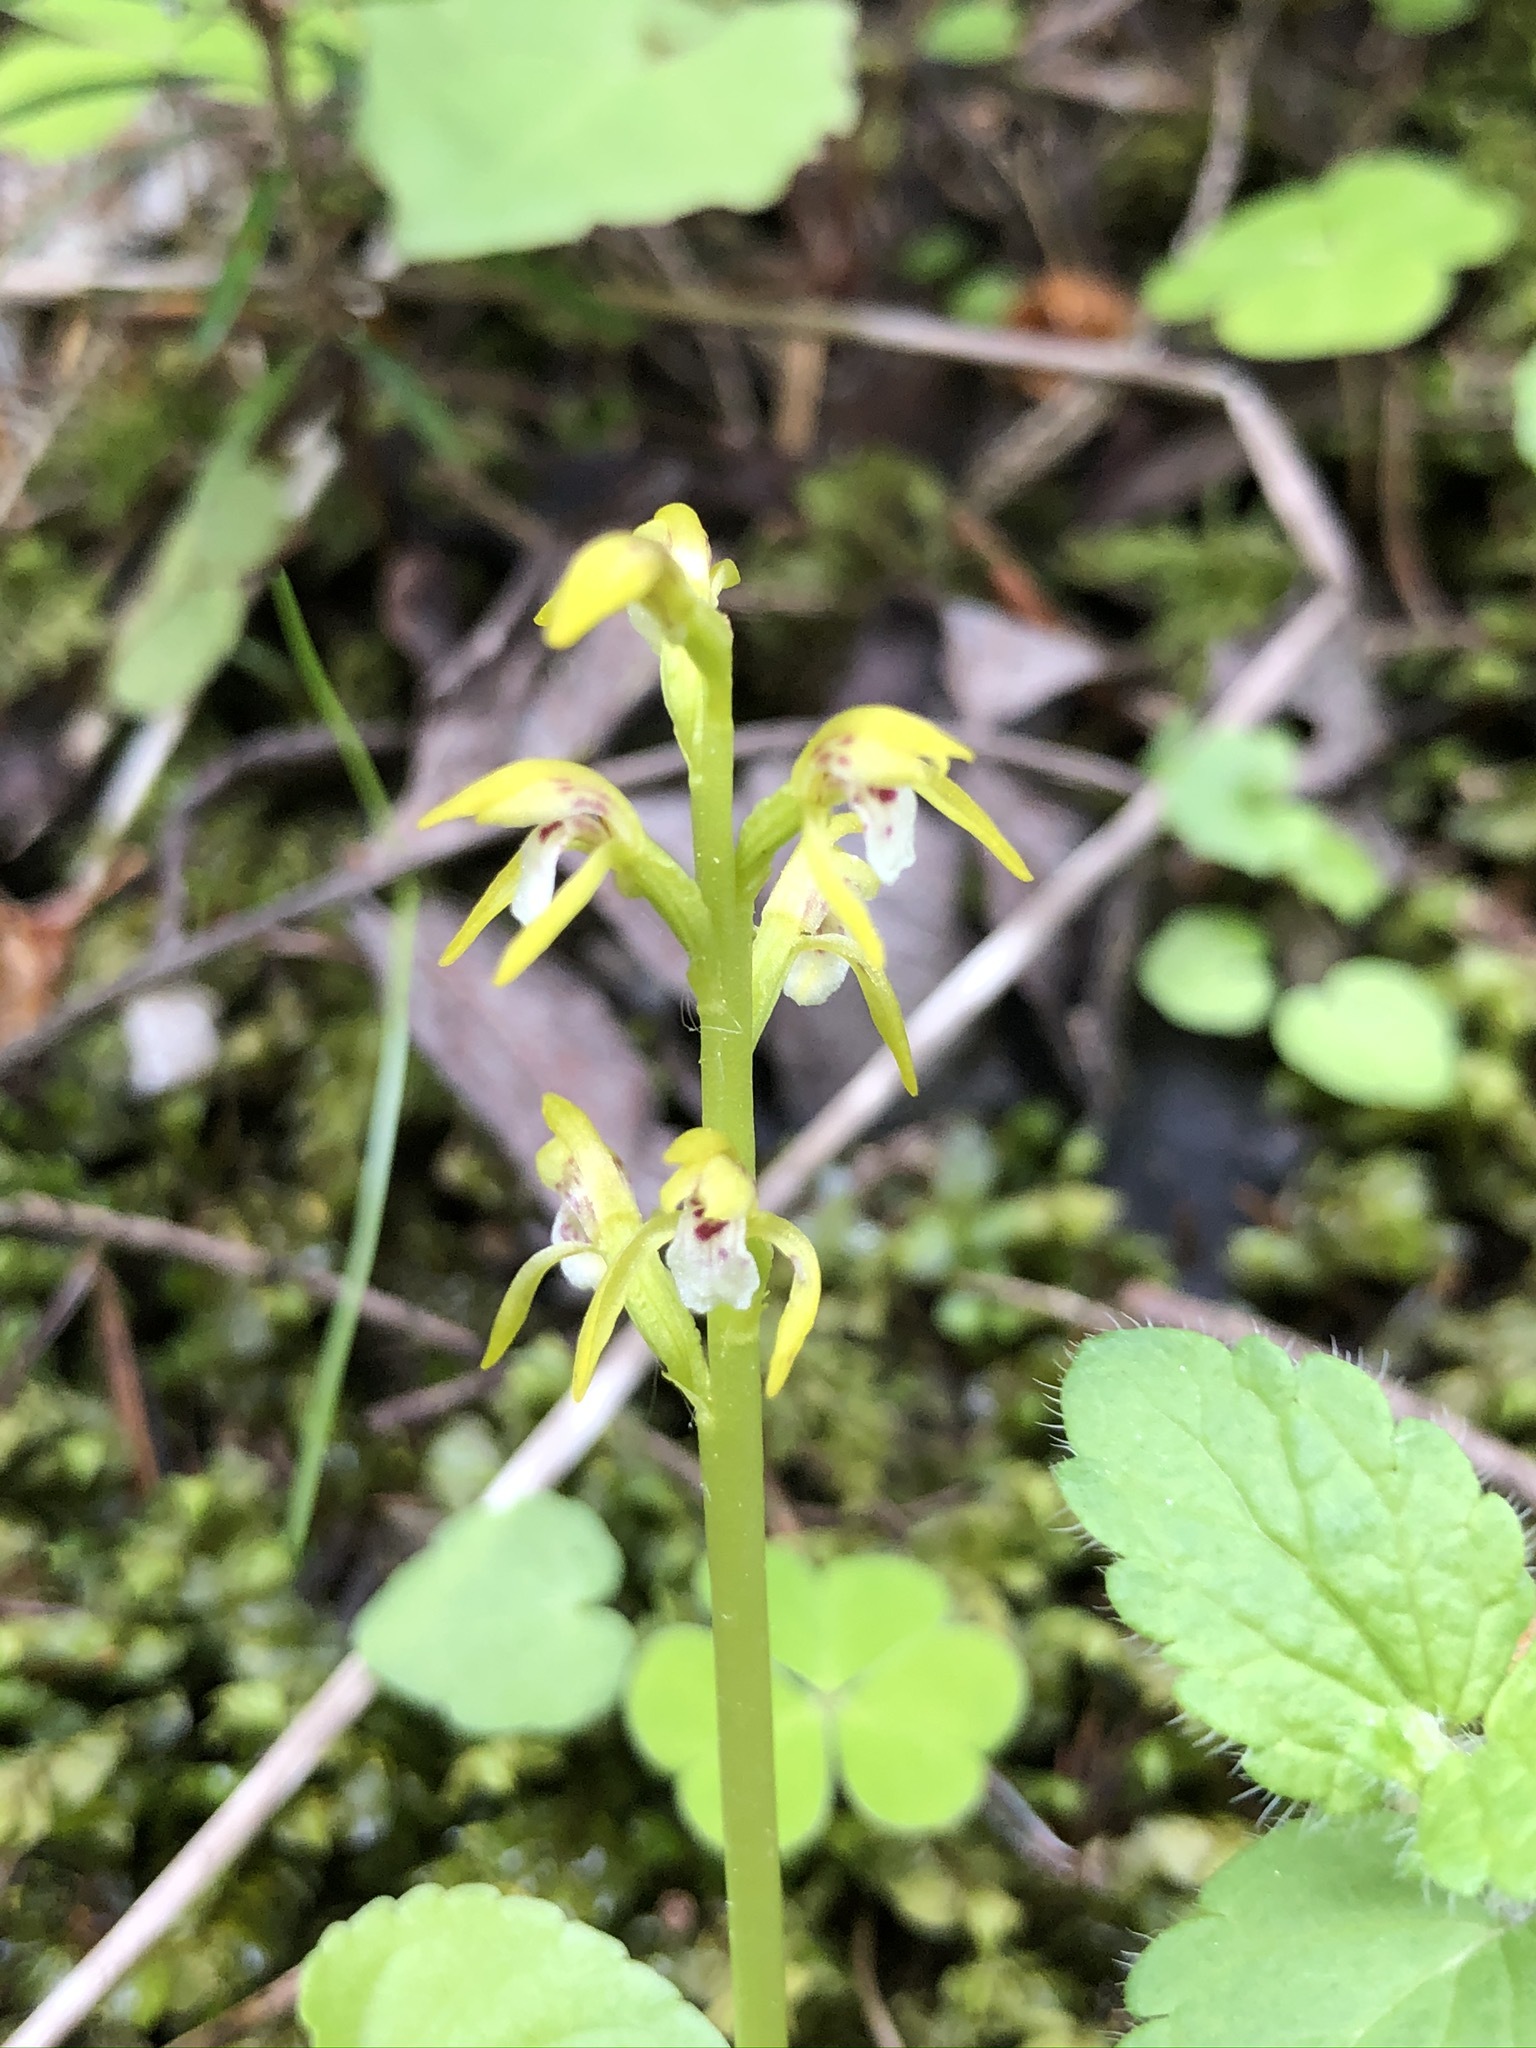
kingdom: Plantae
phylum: Tracheophyta
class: Liliopsida
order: Asparagales
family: Orchidaceae
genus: Corallorhiza
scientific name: Corallorhiza trifida
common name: Yellow coralroot
